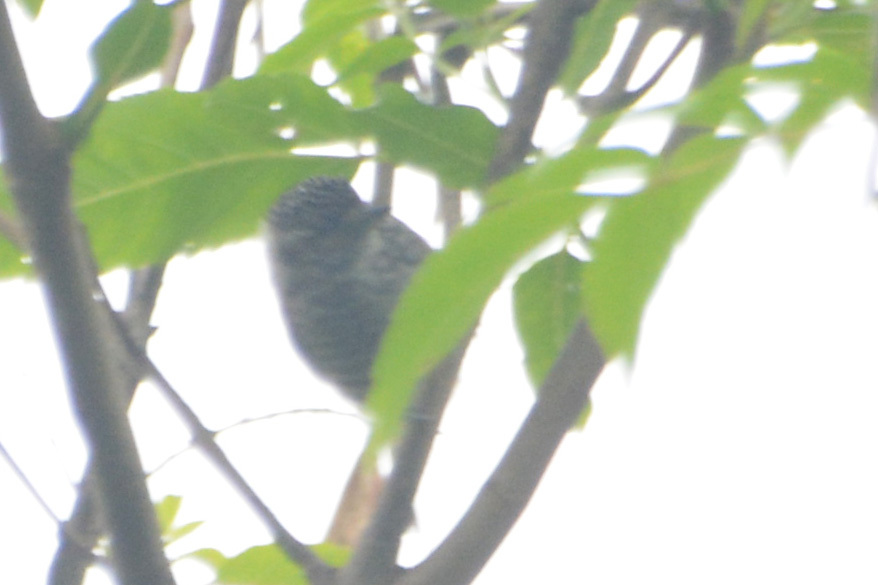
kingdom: Animalia
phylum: Chordata
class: Aves
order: Piciformes
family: Picidae
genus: Picumnus
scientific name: Picumnus cirratus
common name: White-barred piculet
